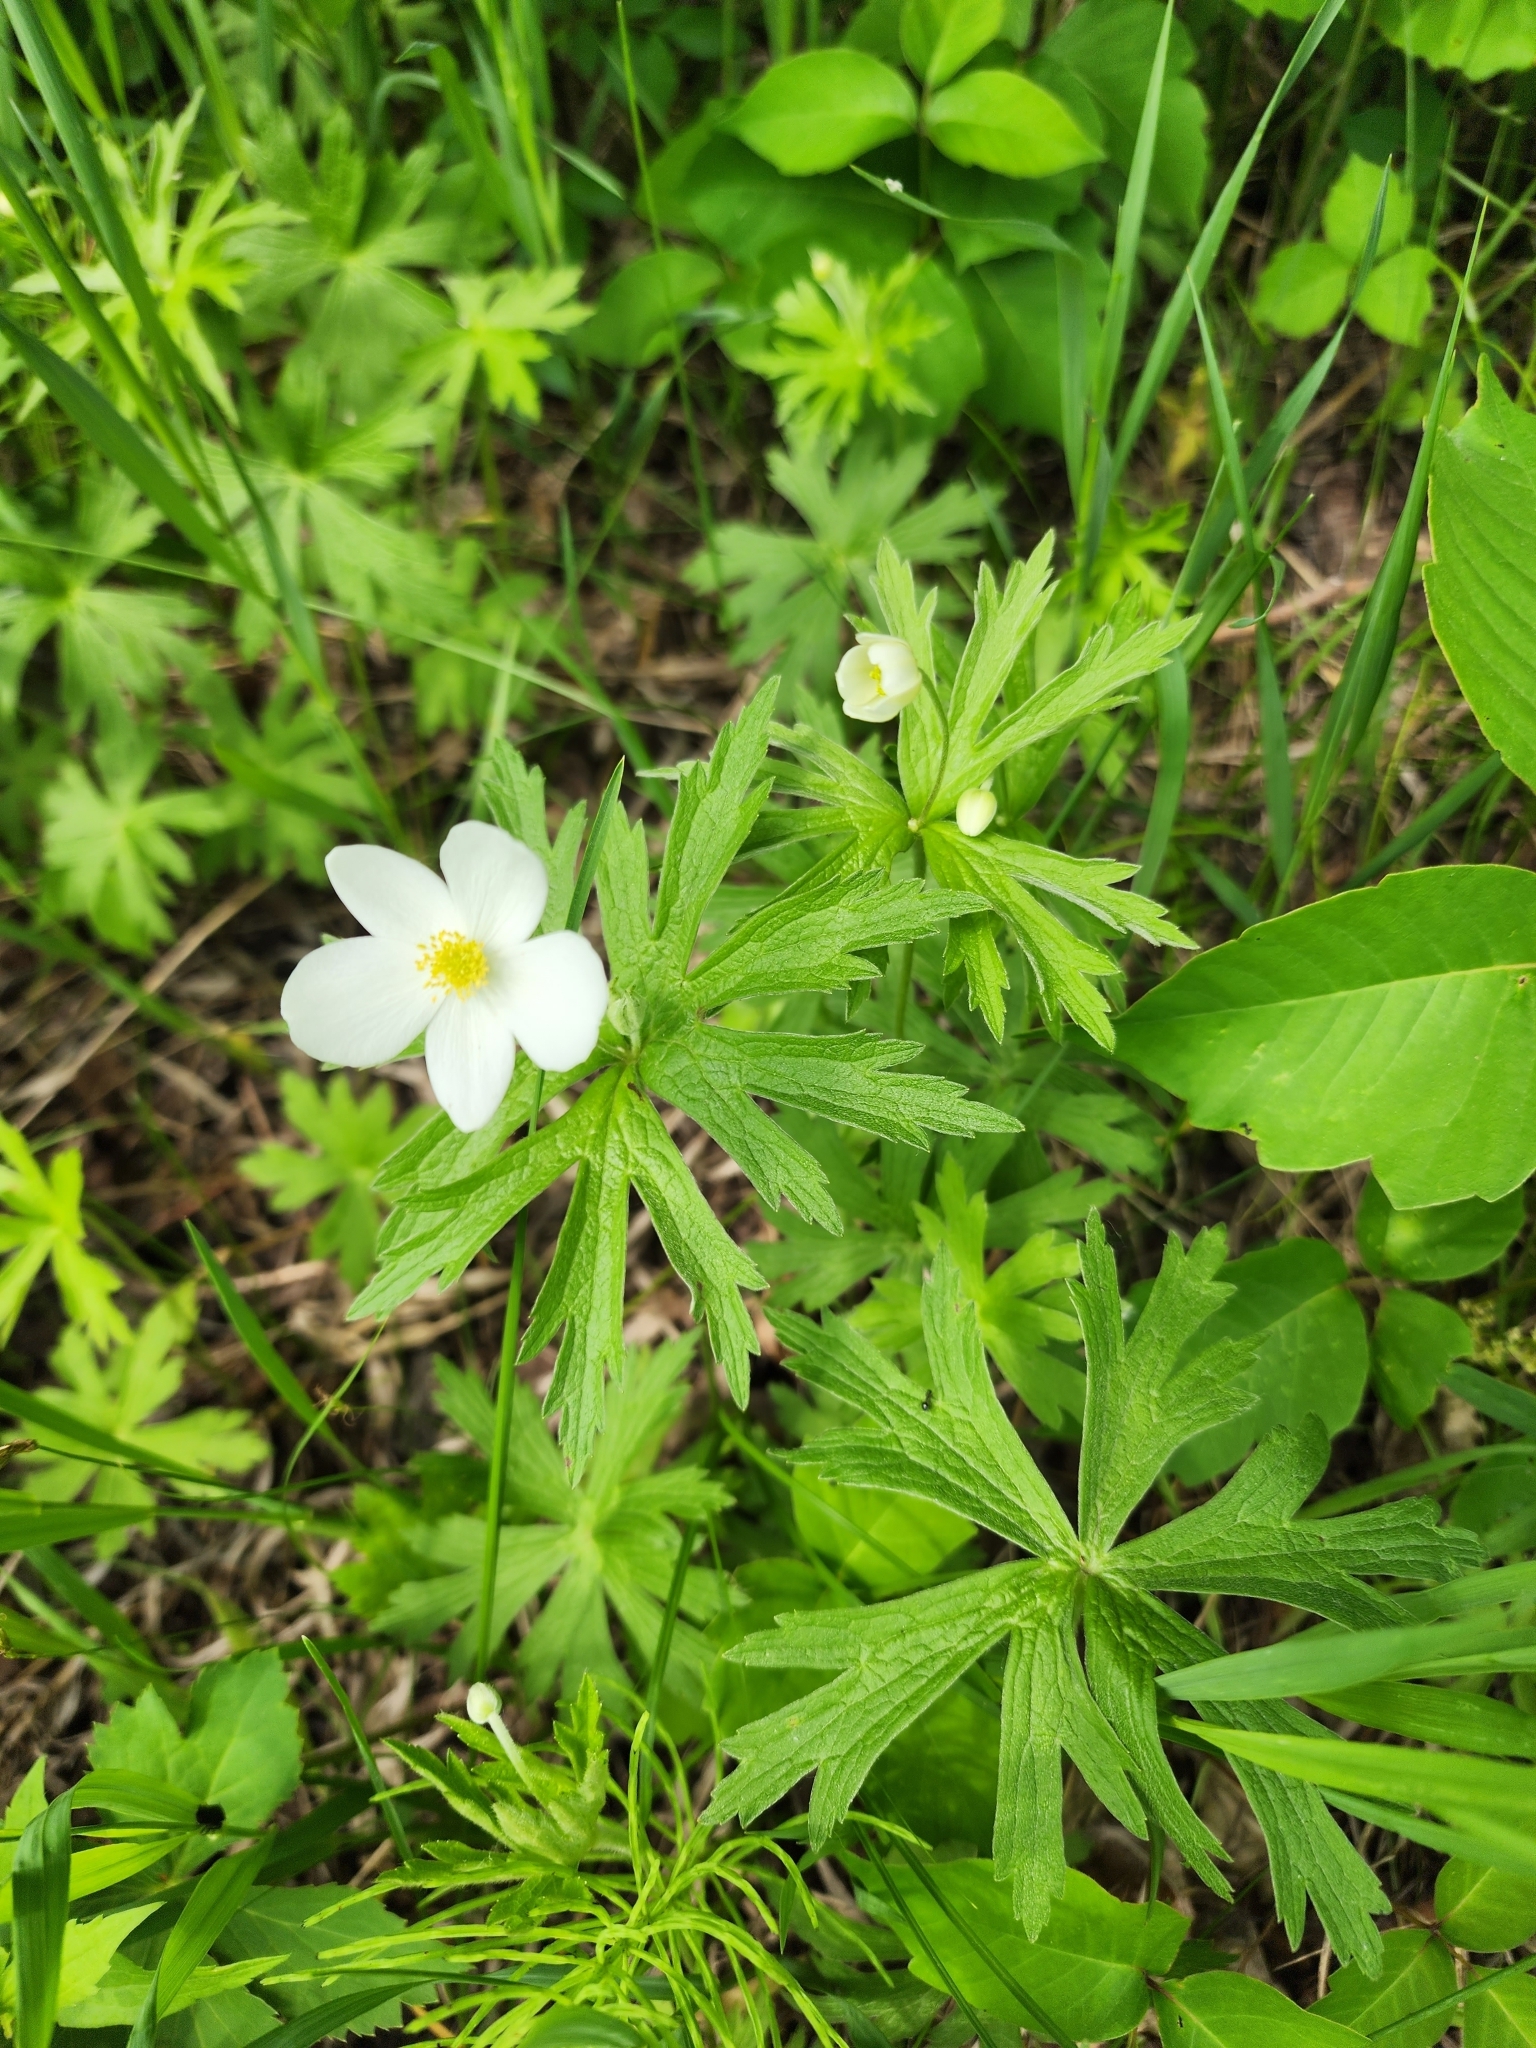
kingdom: Plantae
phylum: Tracheophyta
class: Magnoliopsida
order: Ranunculales
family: Ranunculaceae
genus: Anemonastrum
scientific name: Anemonastrum canadense
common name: Canada anemone
